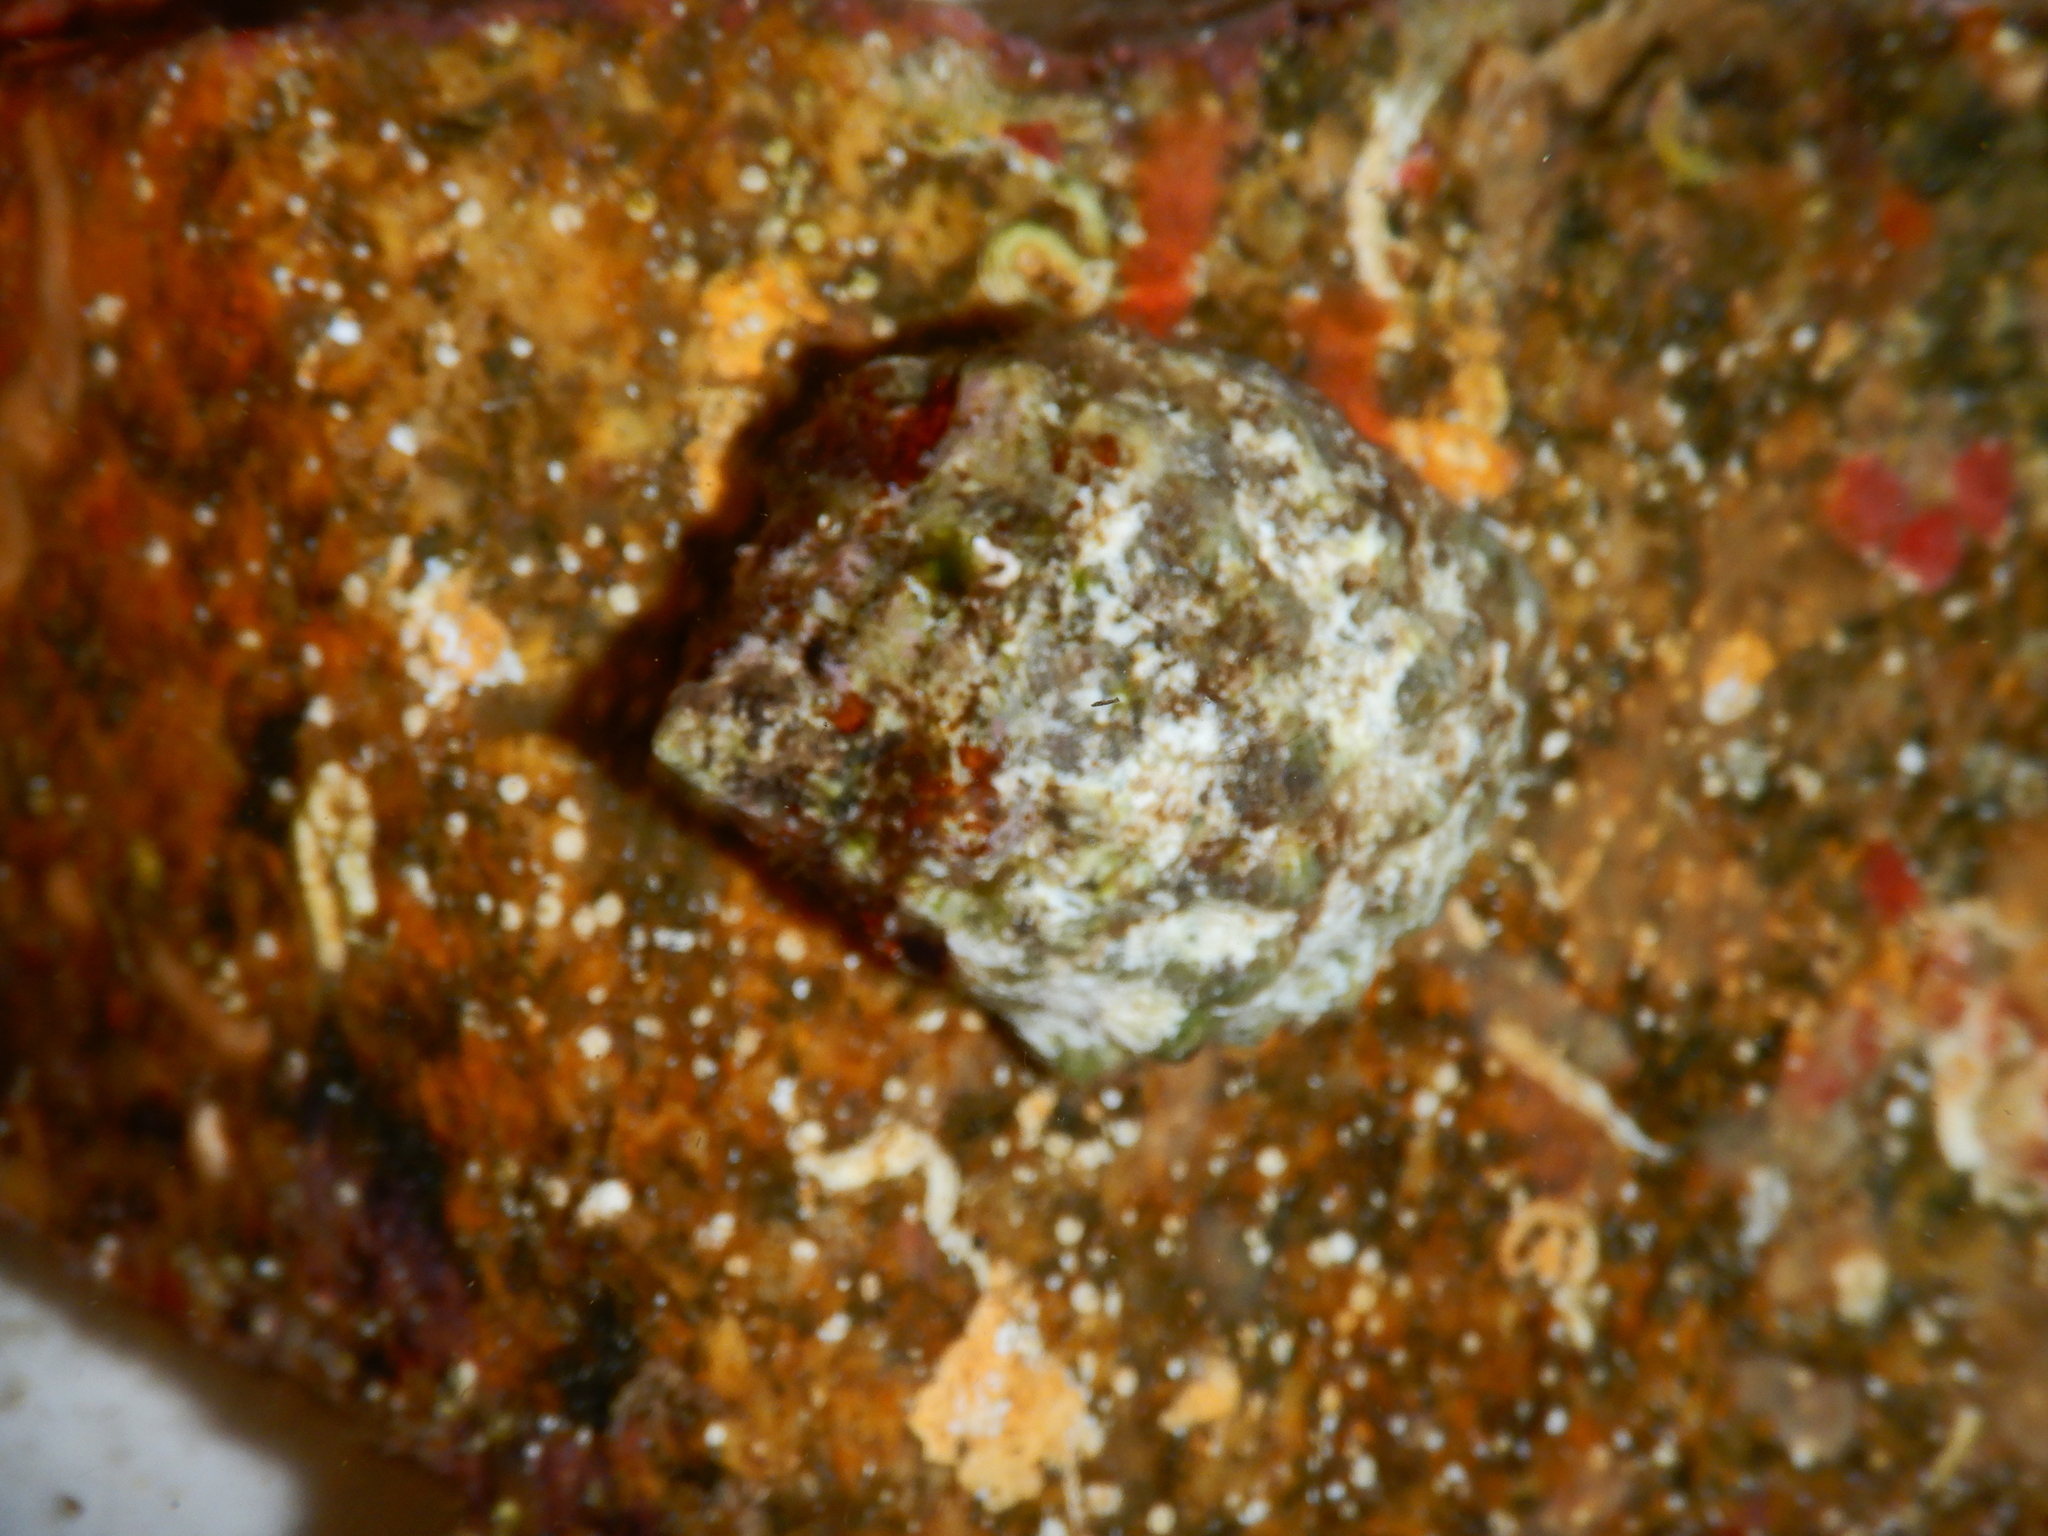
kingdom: Animalia
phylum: Mollusca
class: Gastropoda
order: Neogastropoda
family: Muricidae
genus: Stramonita
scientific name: Stramonita haemastoma
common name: Florida dog winkle
